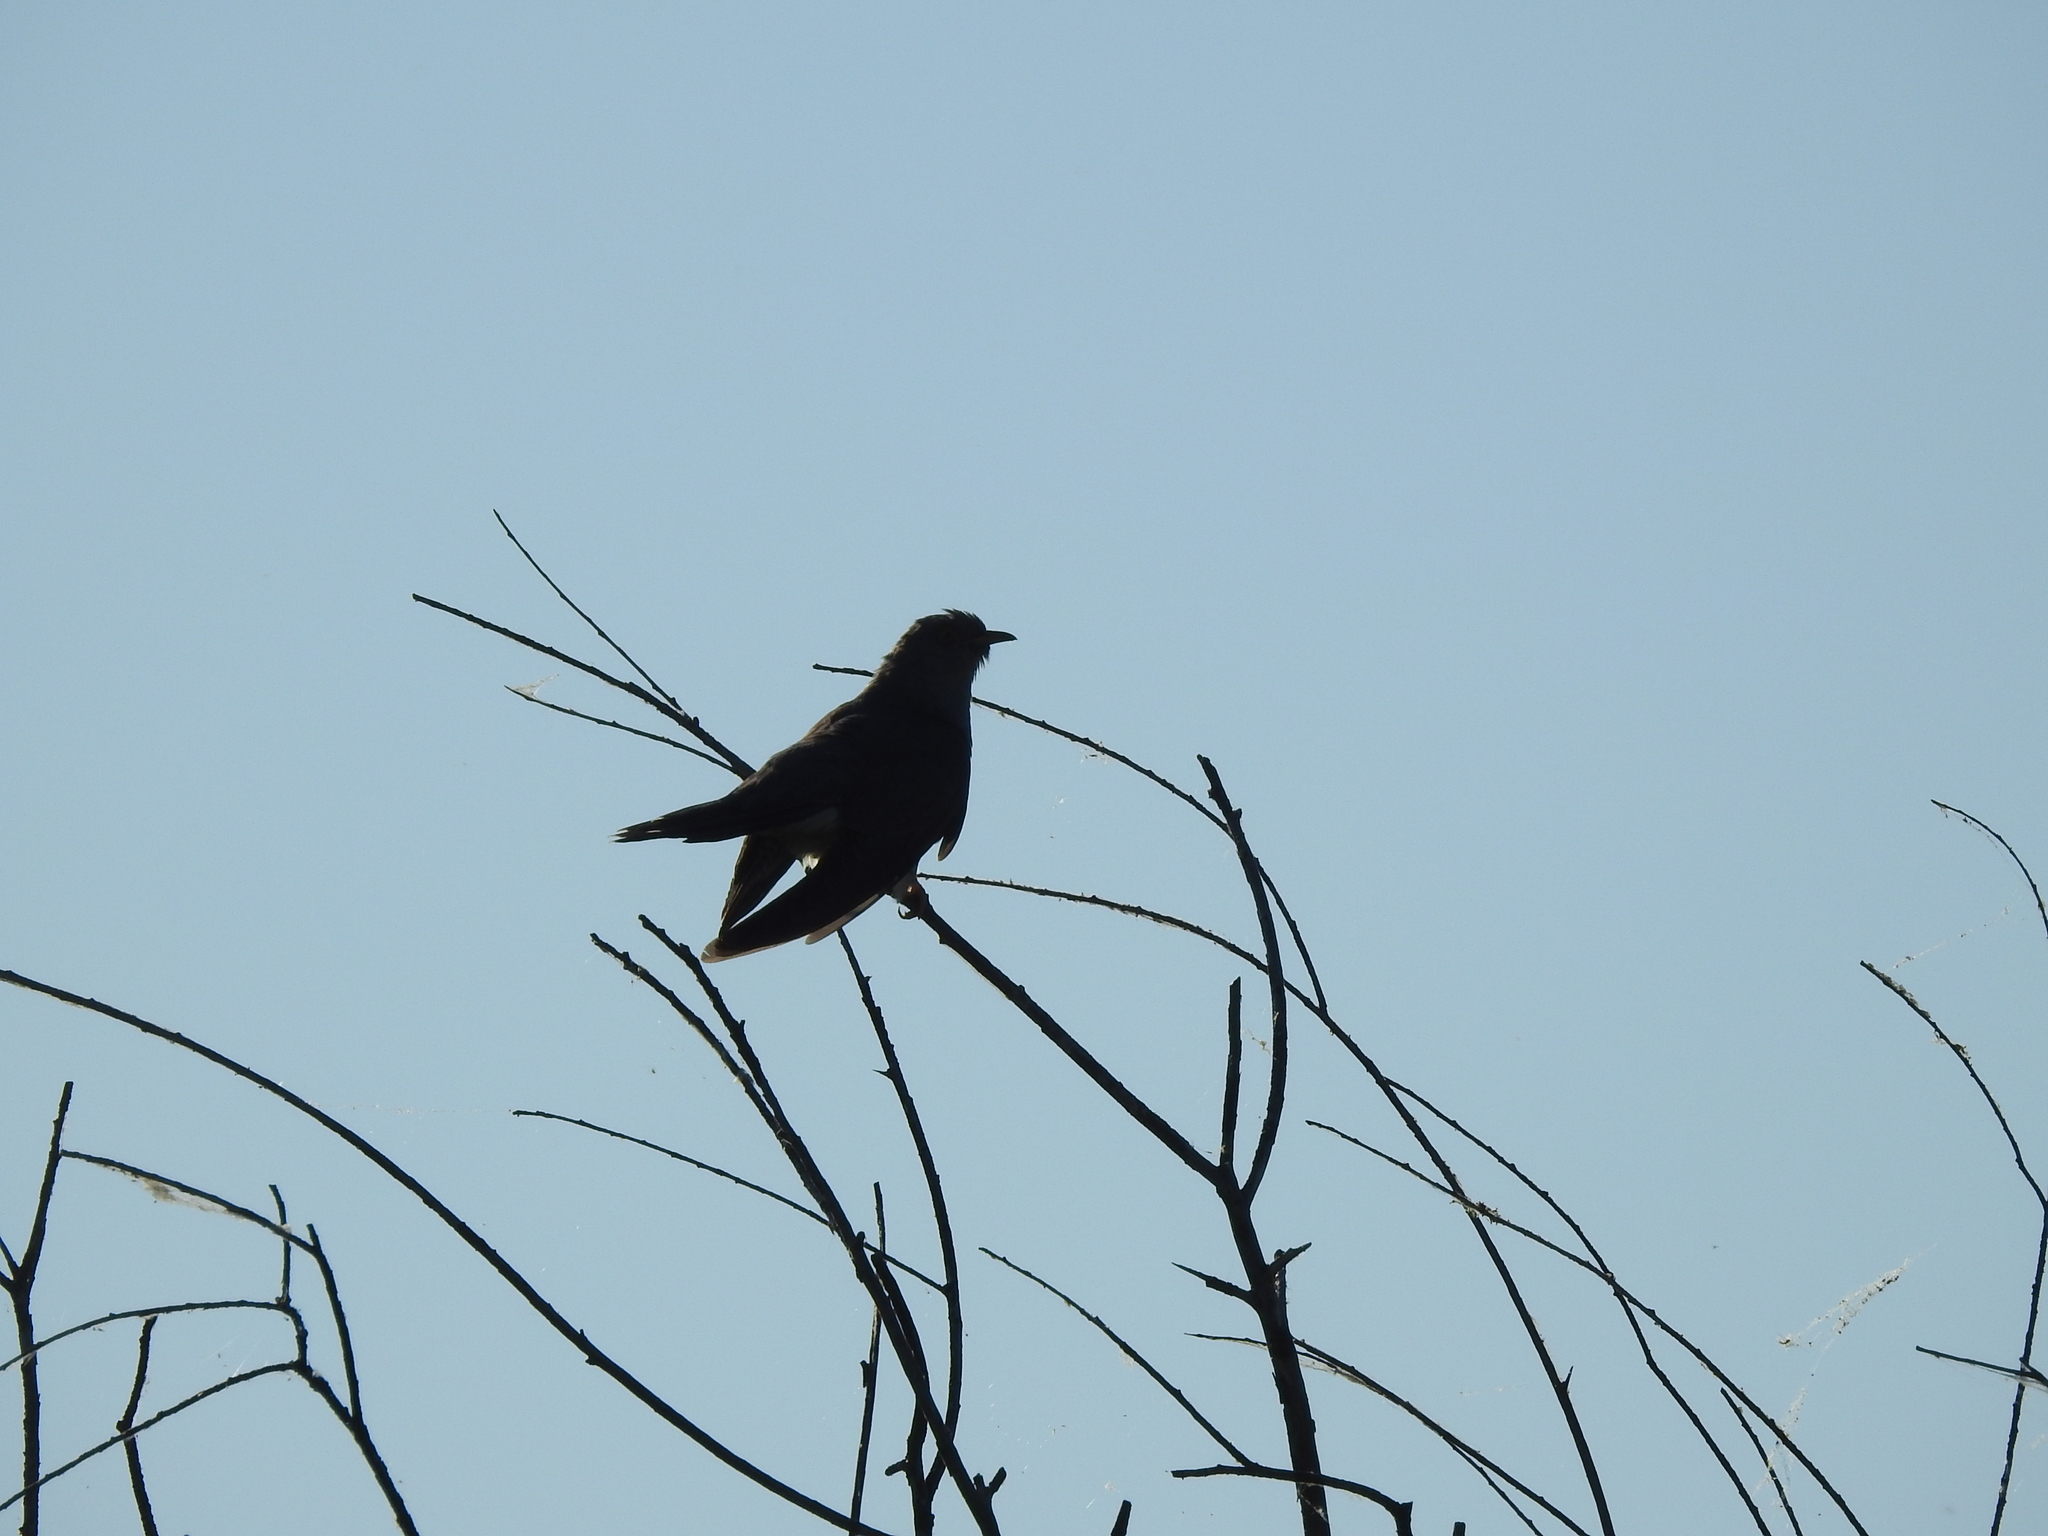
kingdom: Animalia
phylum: Chordata
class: Aves
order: Cuculiformes
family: Cuculidae
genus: Cuculus
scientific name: Cuculus canorus
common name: Common cuckoo
